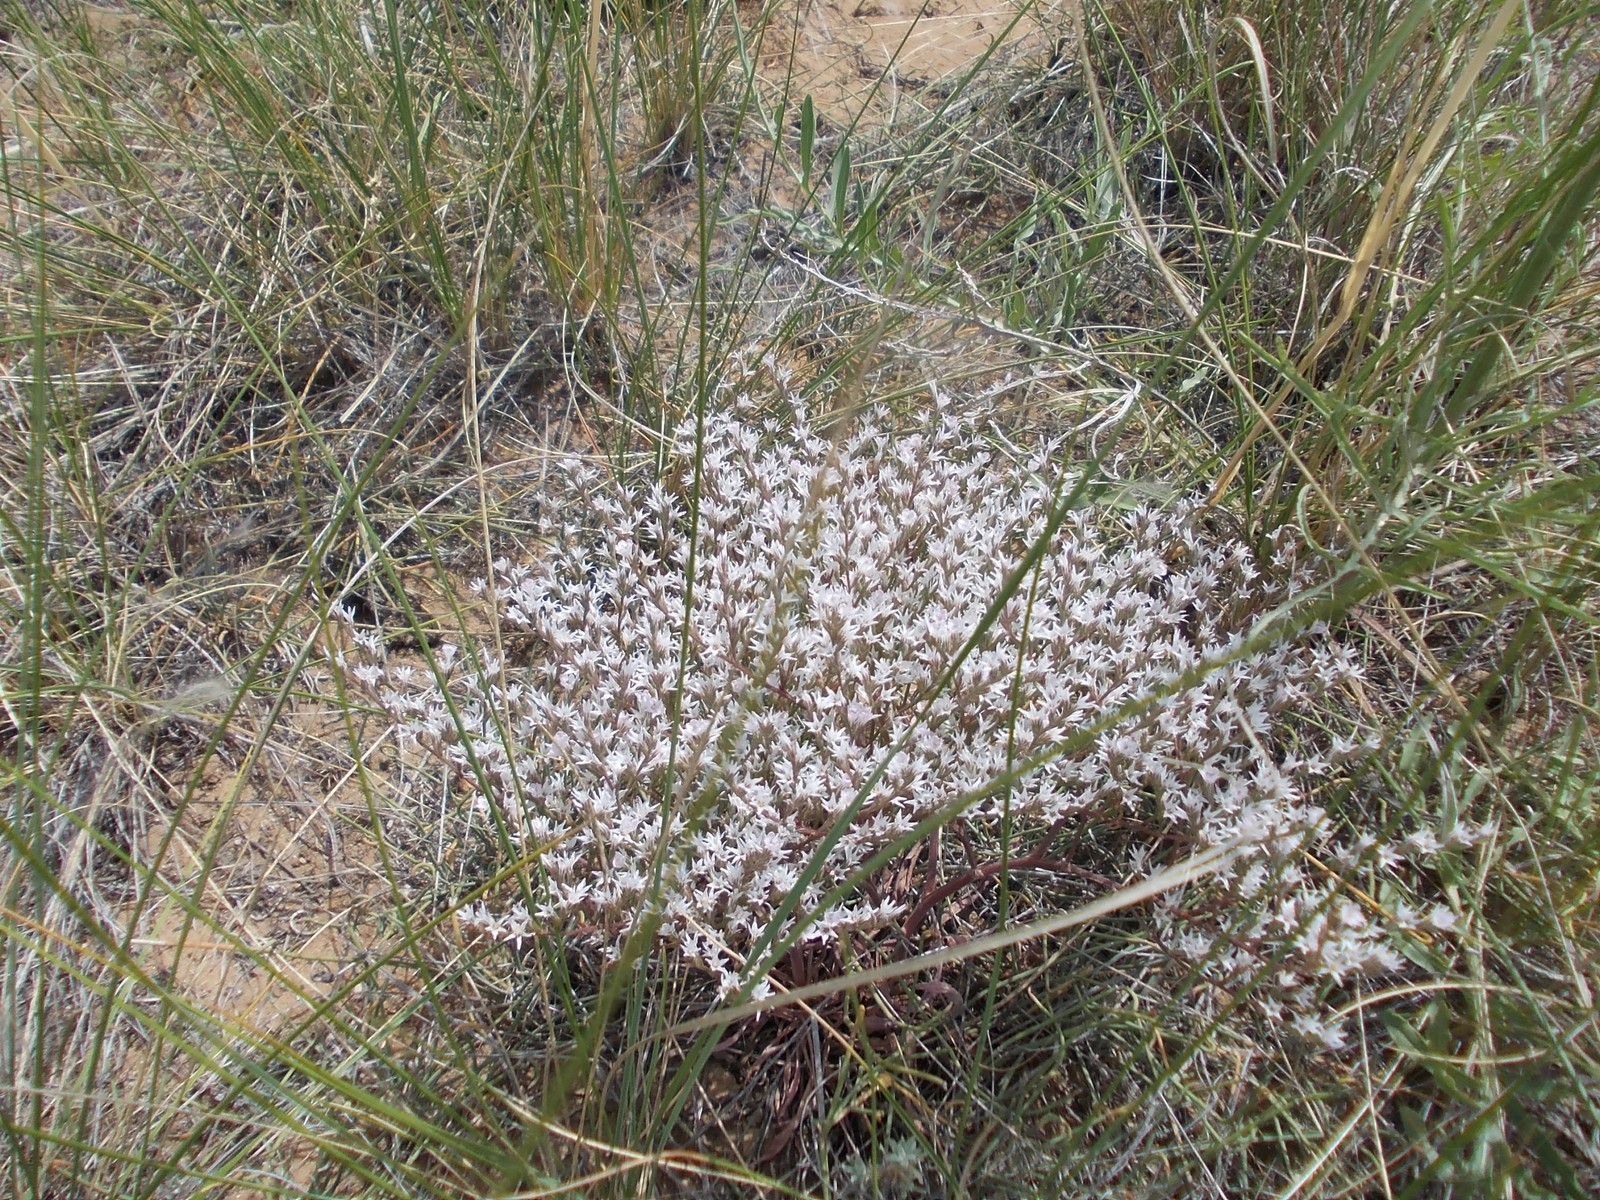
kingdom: Plantae
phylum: Tracheophyta
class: Magnoliopsida
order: Caryophyllales
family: Plumbaginaceae
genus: Goniolimon
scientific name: Goniolimon rubellum
